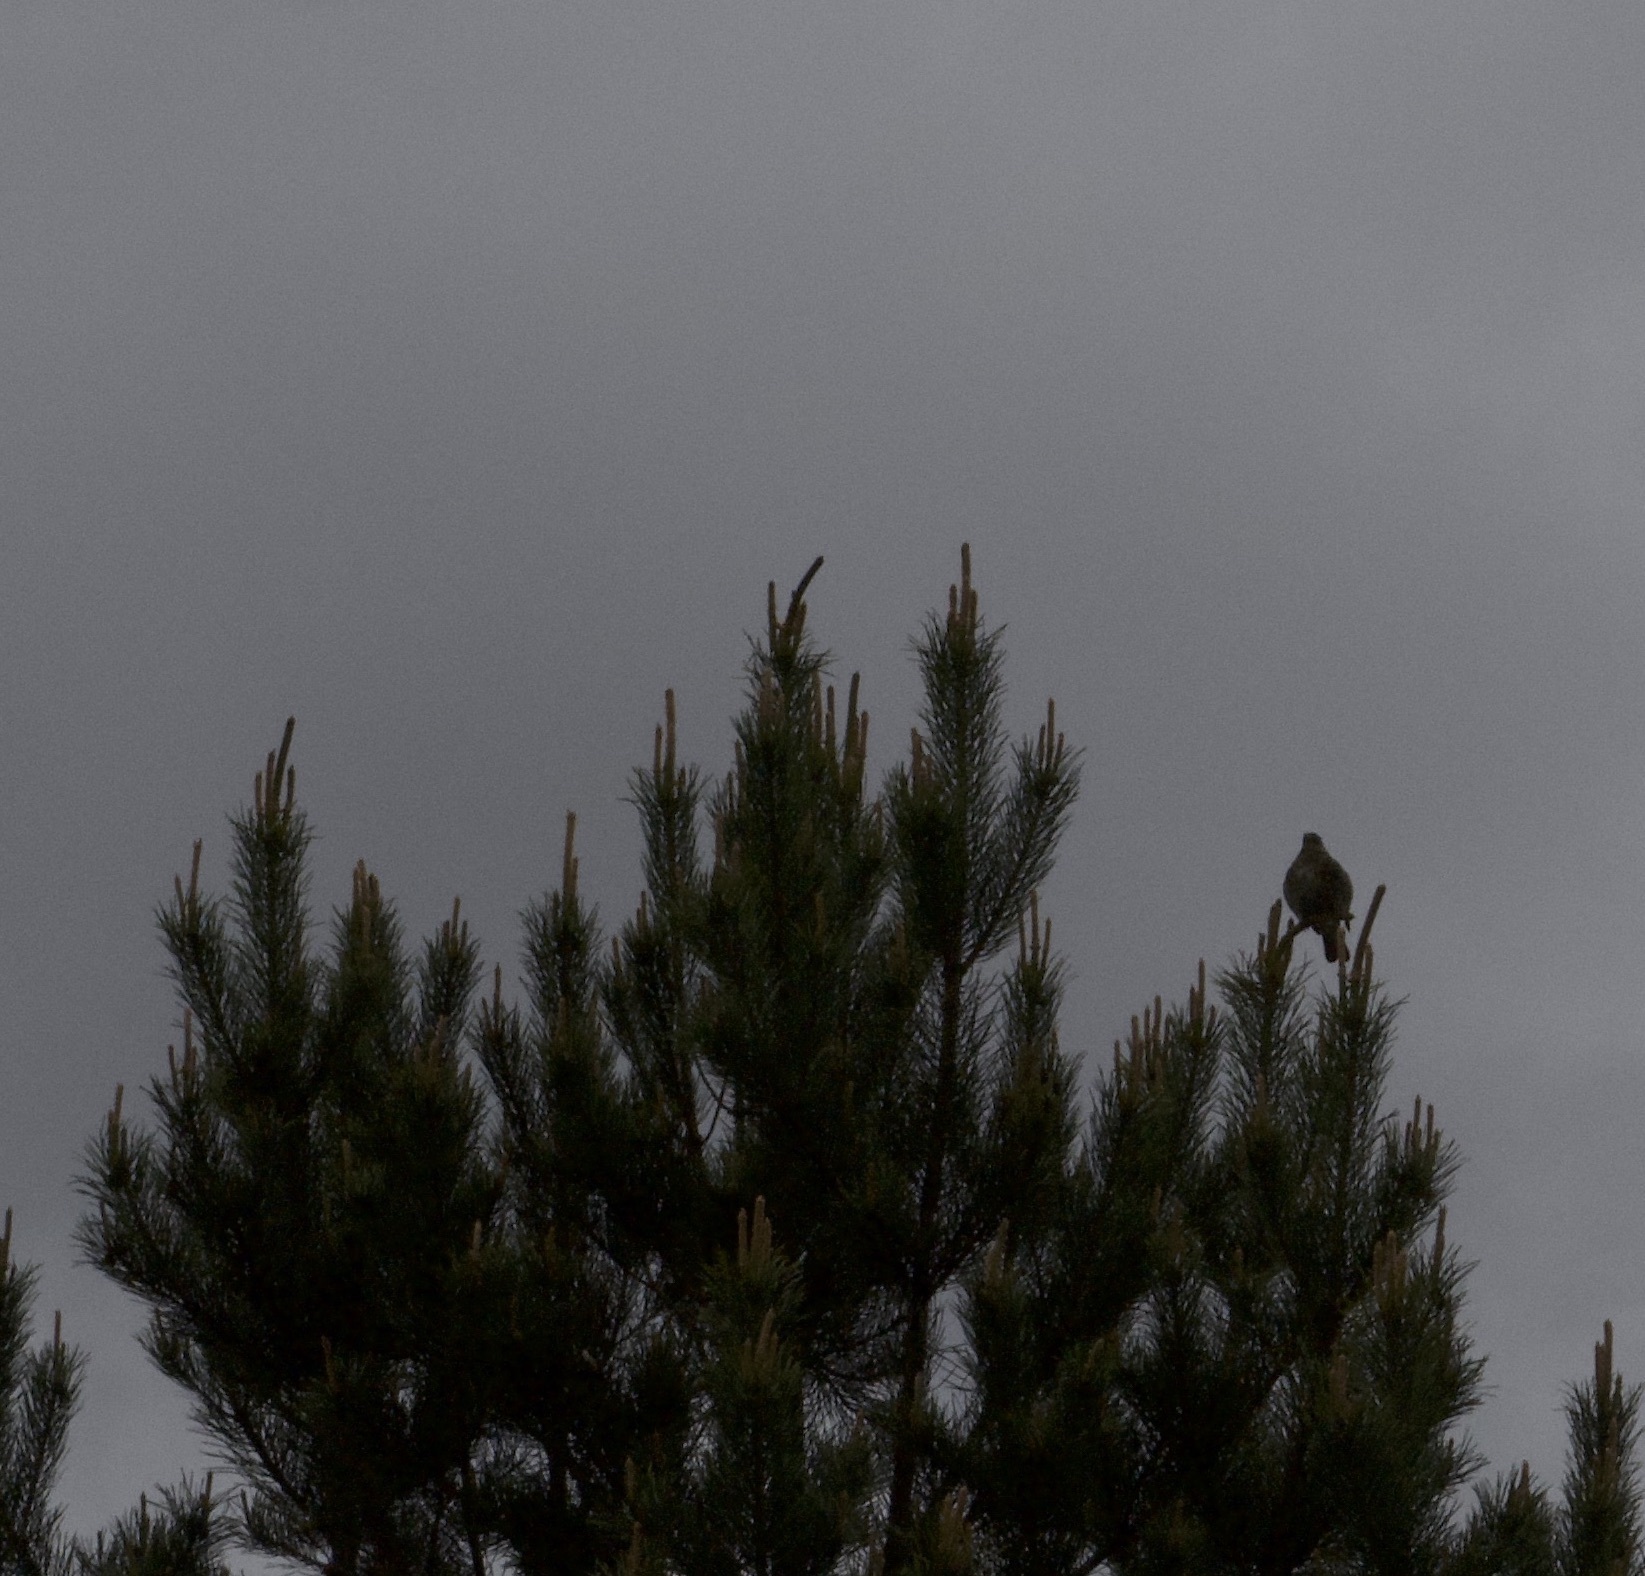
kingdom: Animalia
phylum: Chordata
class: Aves
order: Passeriformes
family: Turdidae
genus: Turdus
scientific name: Turdus pilaris
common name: Fieldfare
